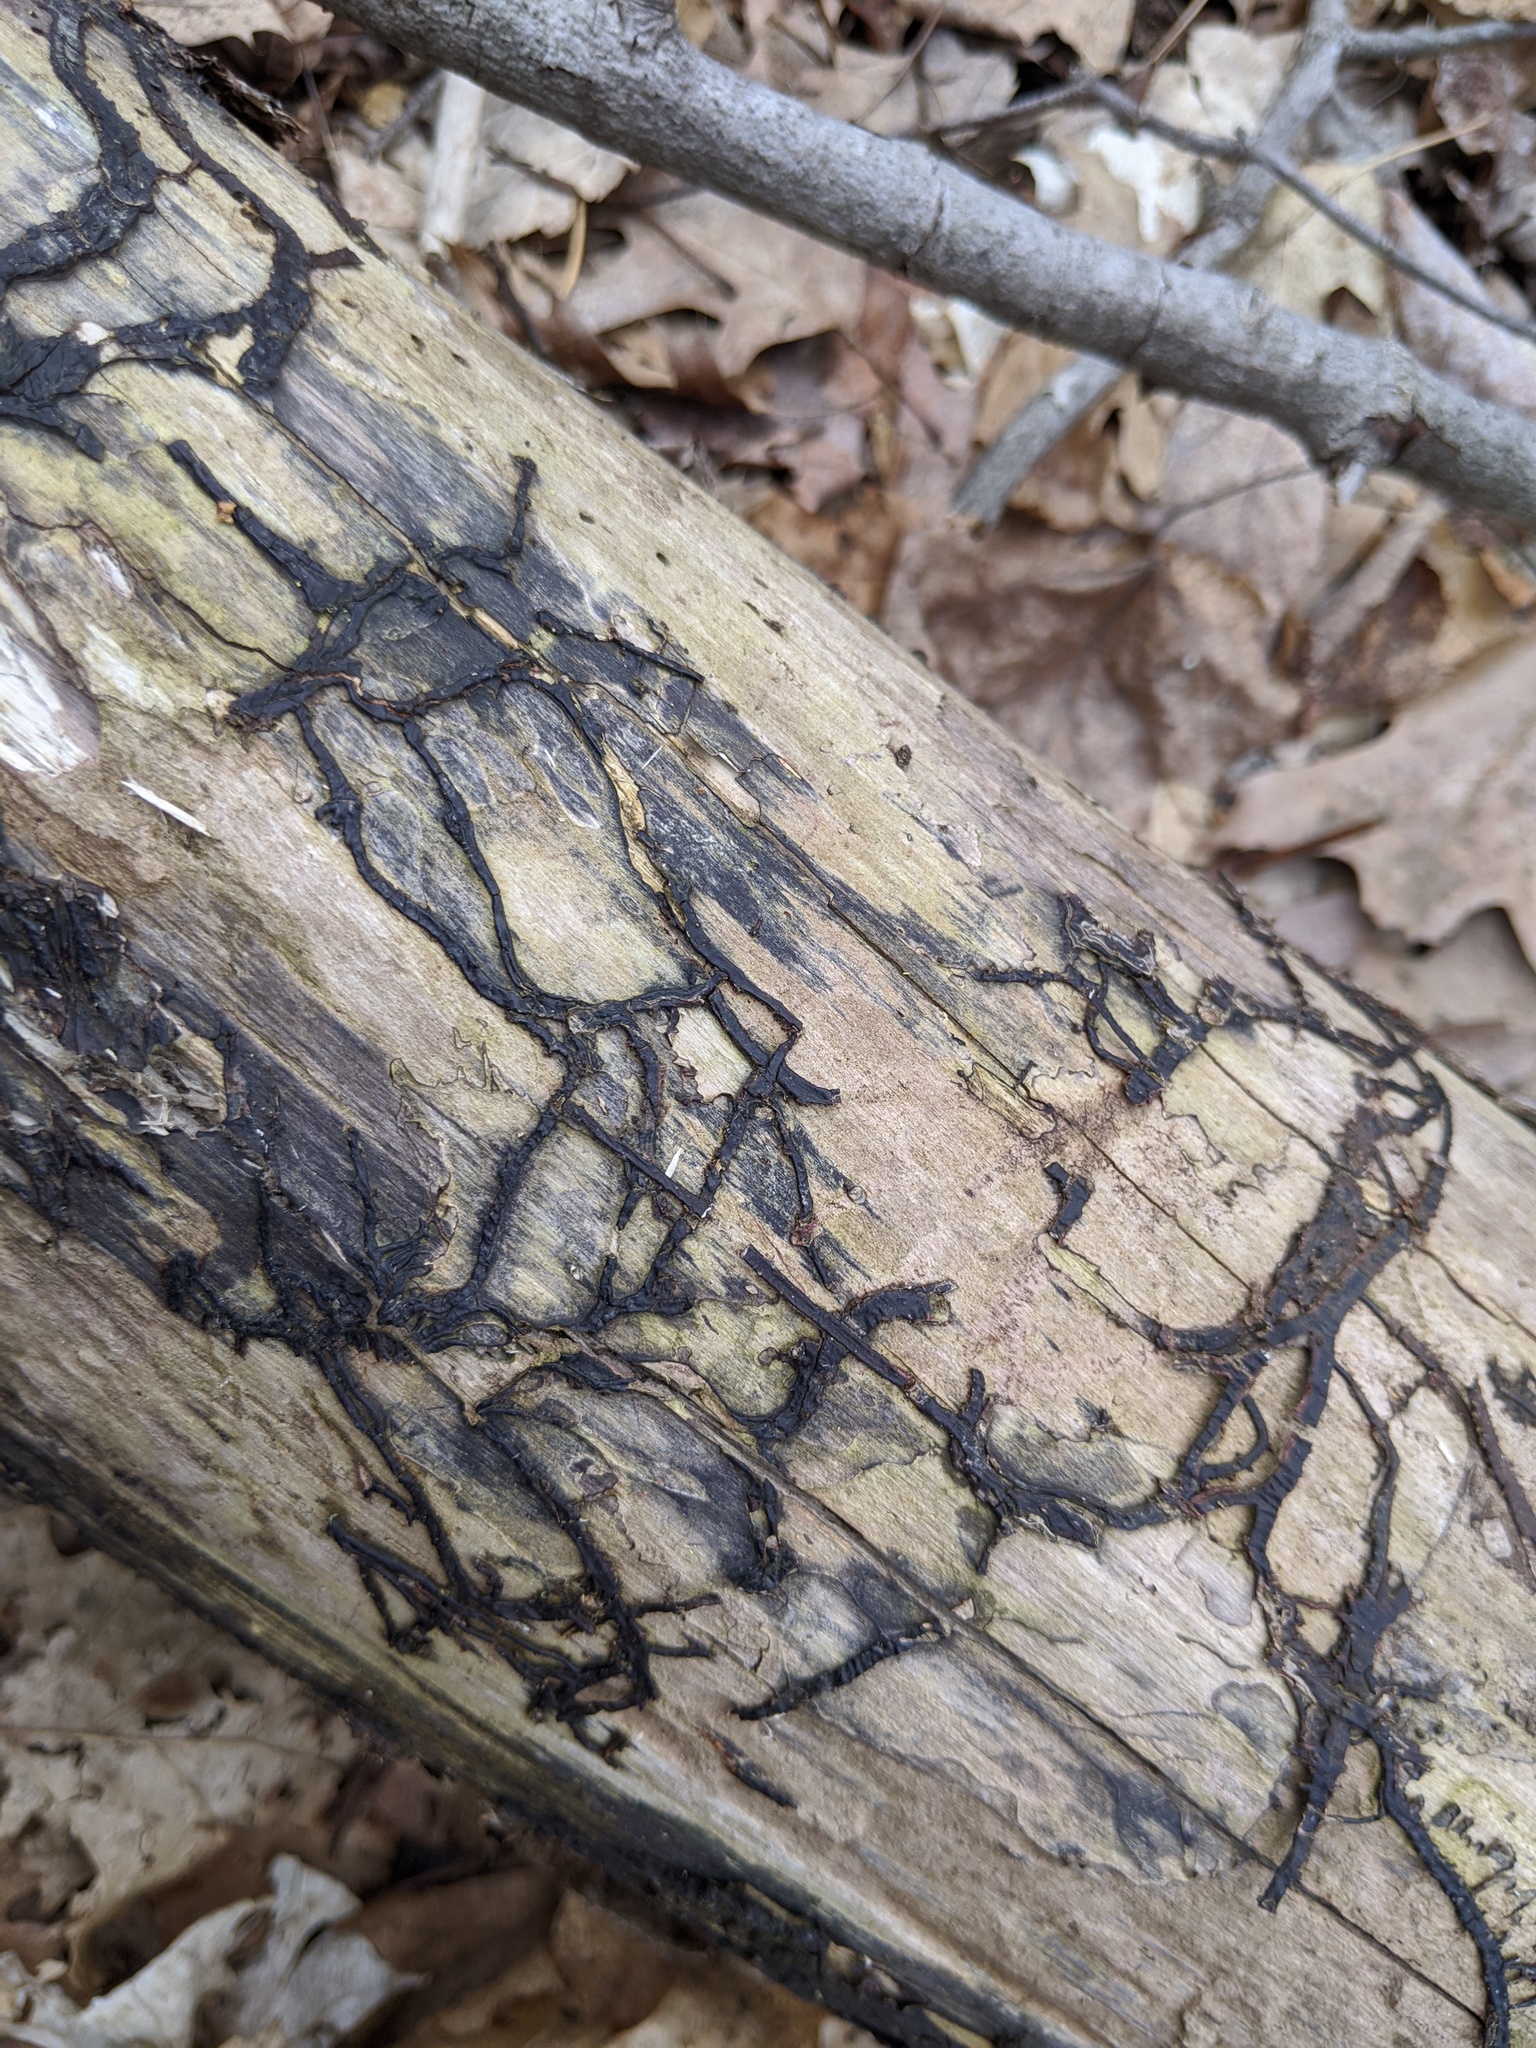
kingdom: Fungi
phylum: Basidiomycota
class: Agaricomycetes
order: Agaricales
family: Physalacriaceae
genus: Armillaria
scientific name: Armillaria
